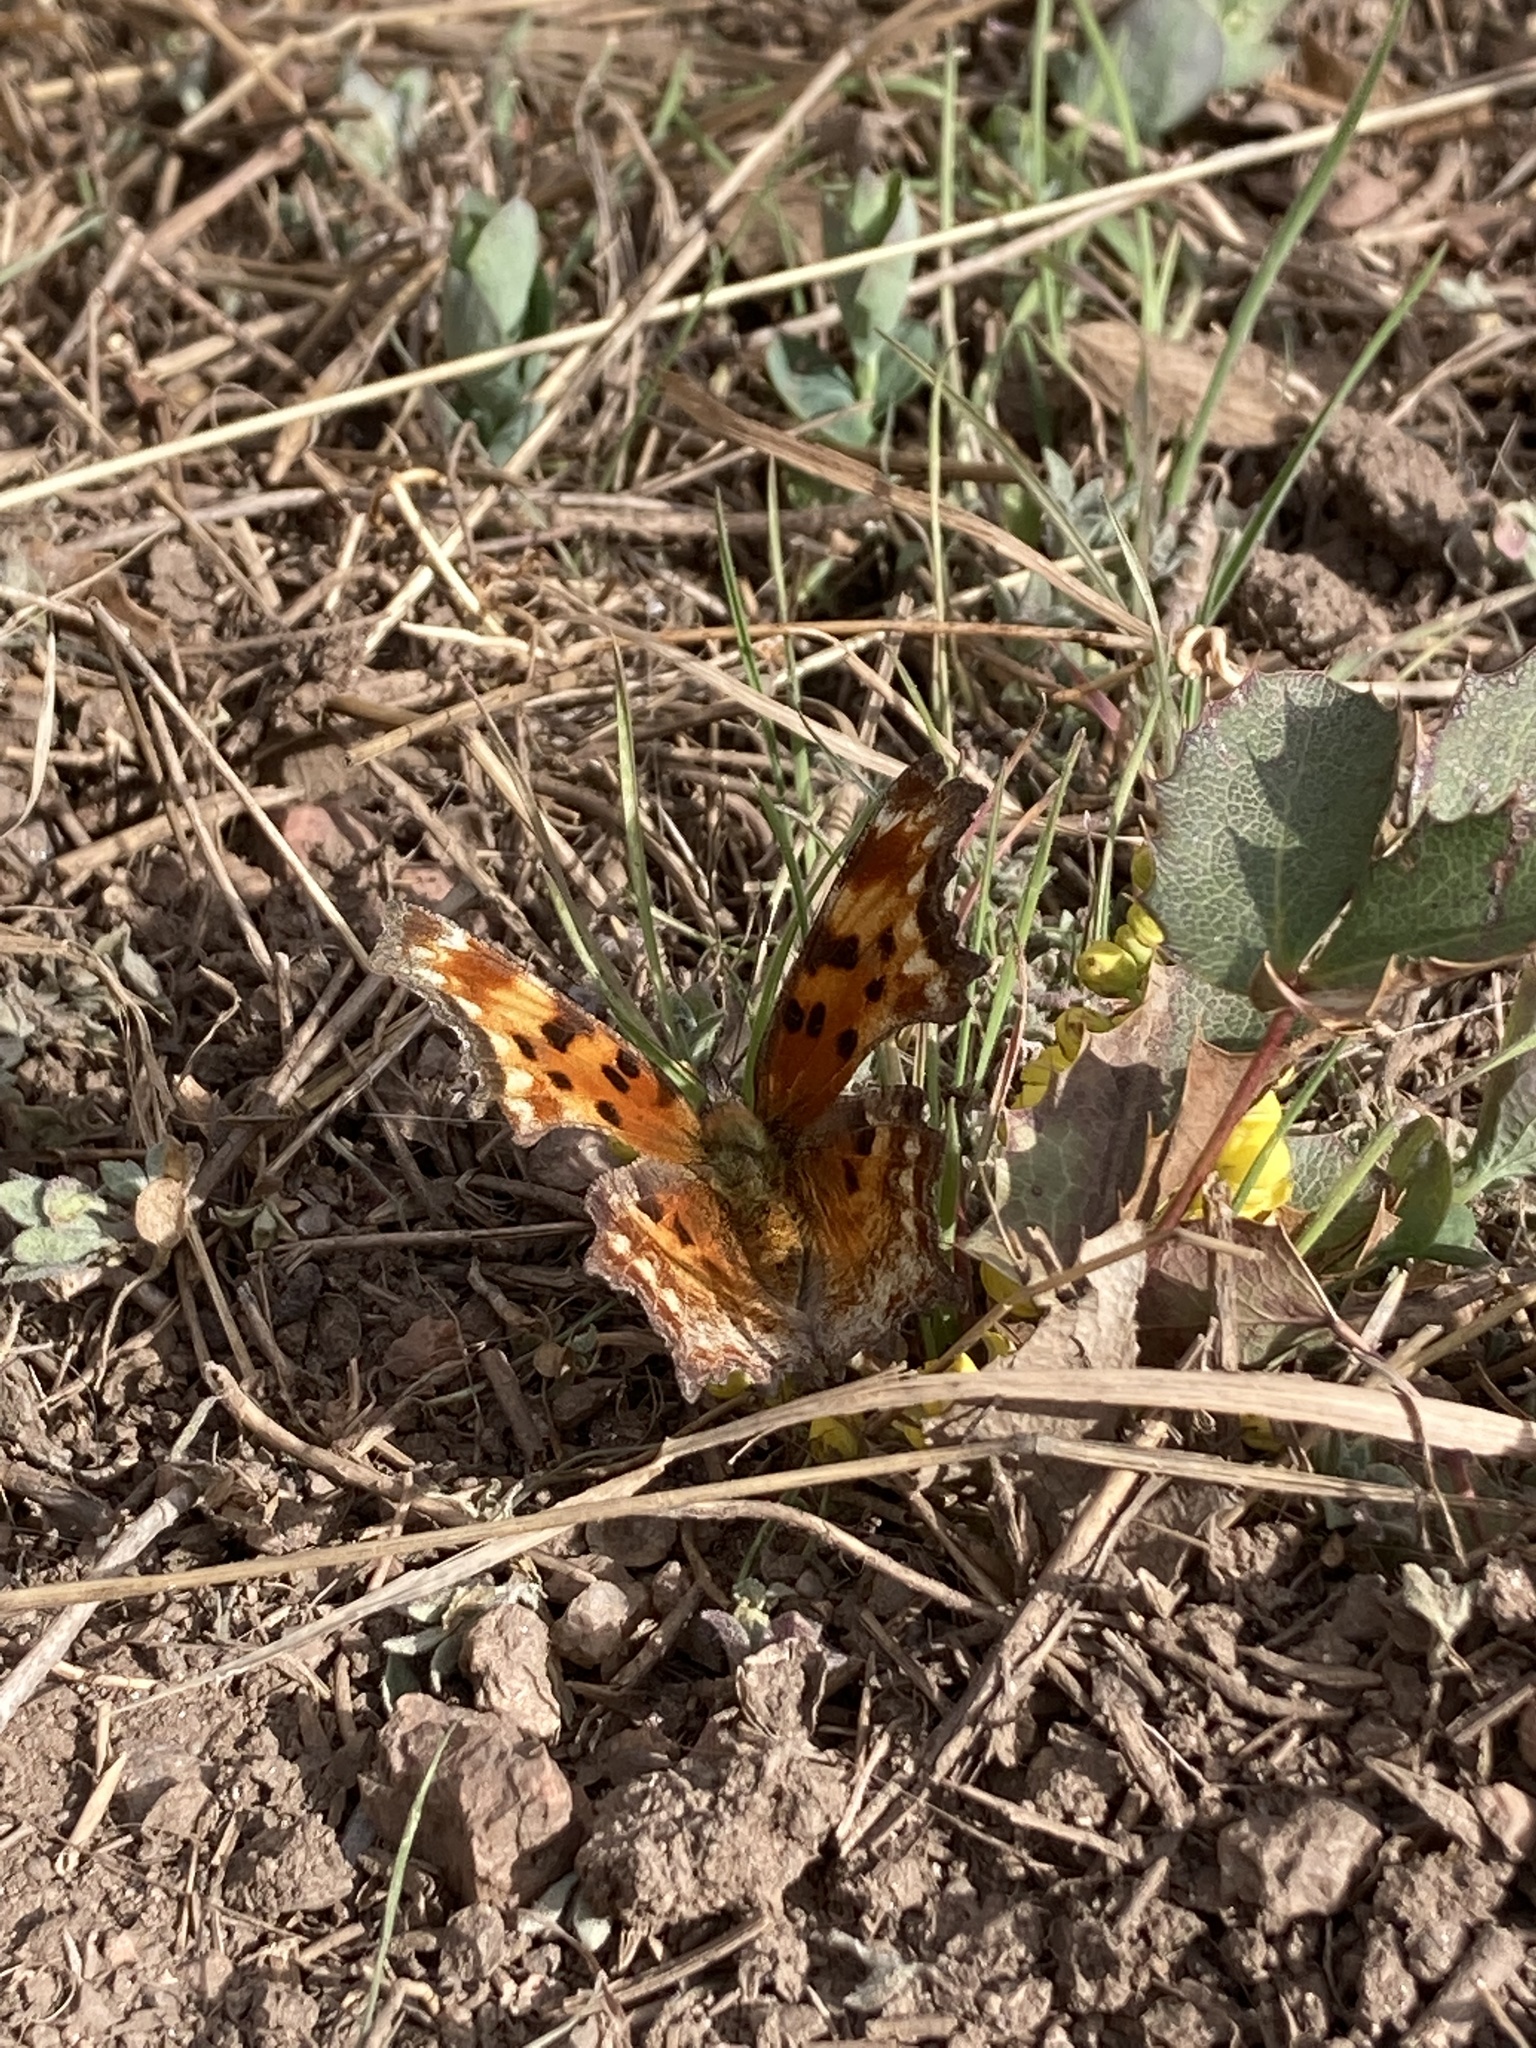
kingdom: Animalia
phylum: Arthropoda
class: Insecta
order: Lepidoptera
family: Nymphalidae
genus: Polygonia
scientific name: Polygonia gracilis
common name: Hoary comma
